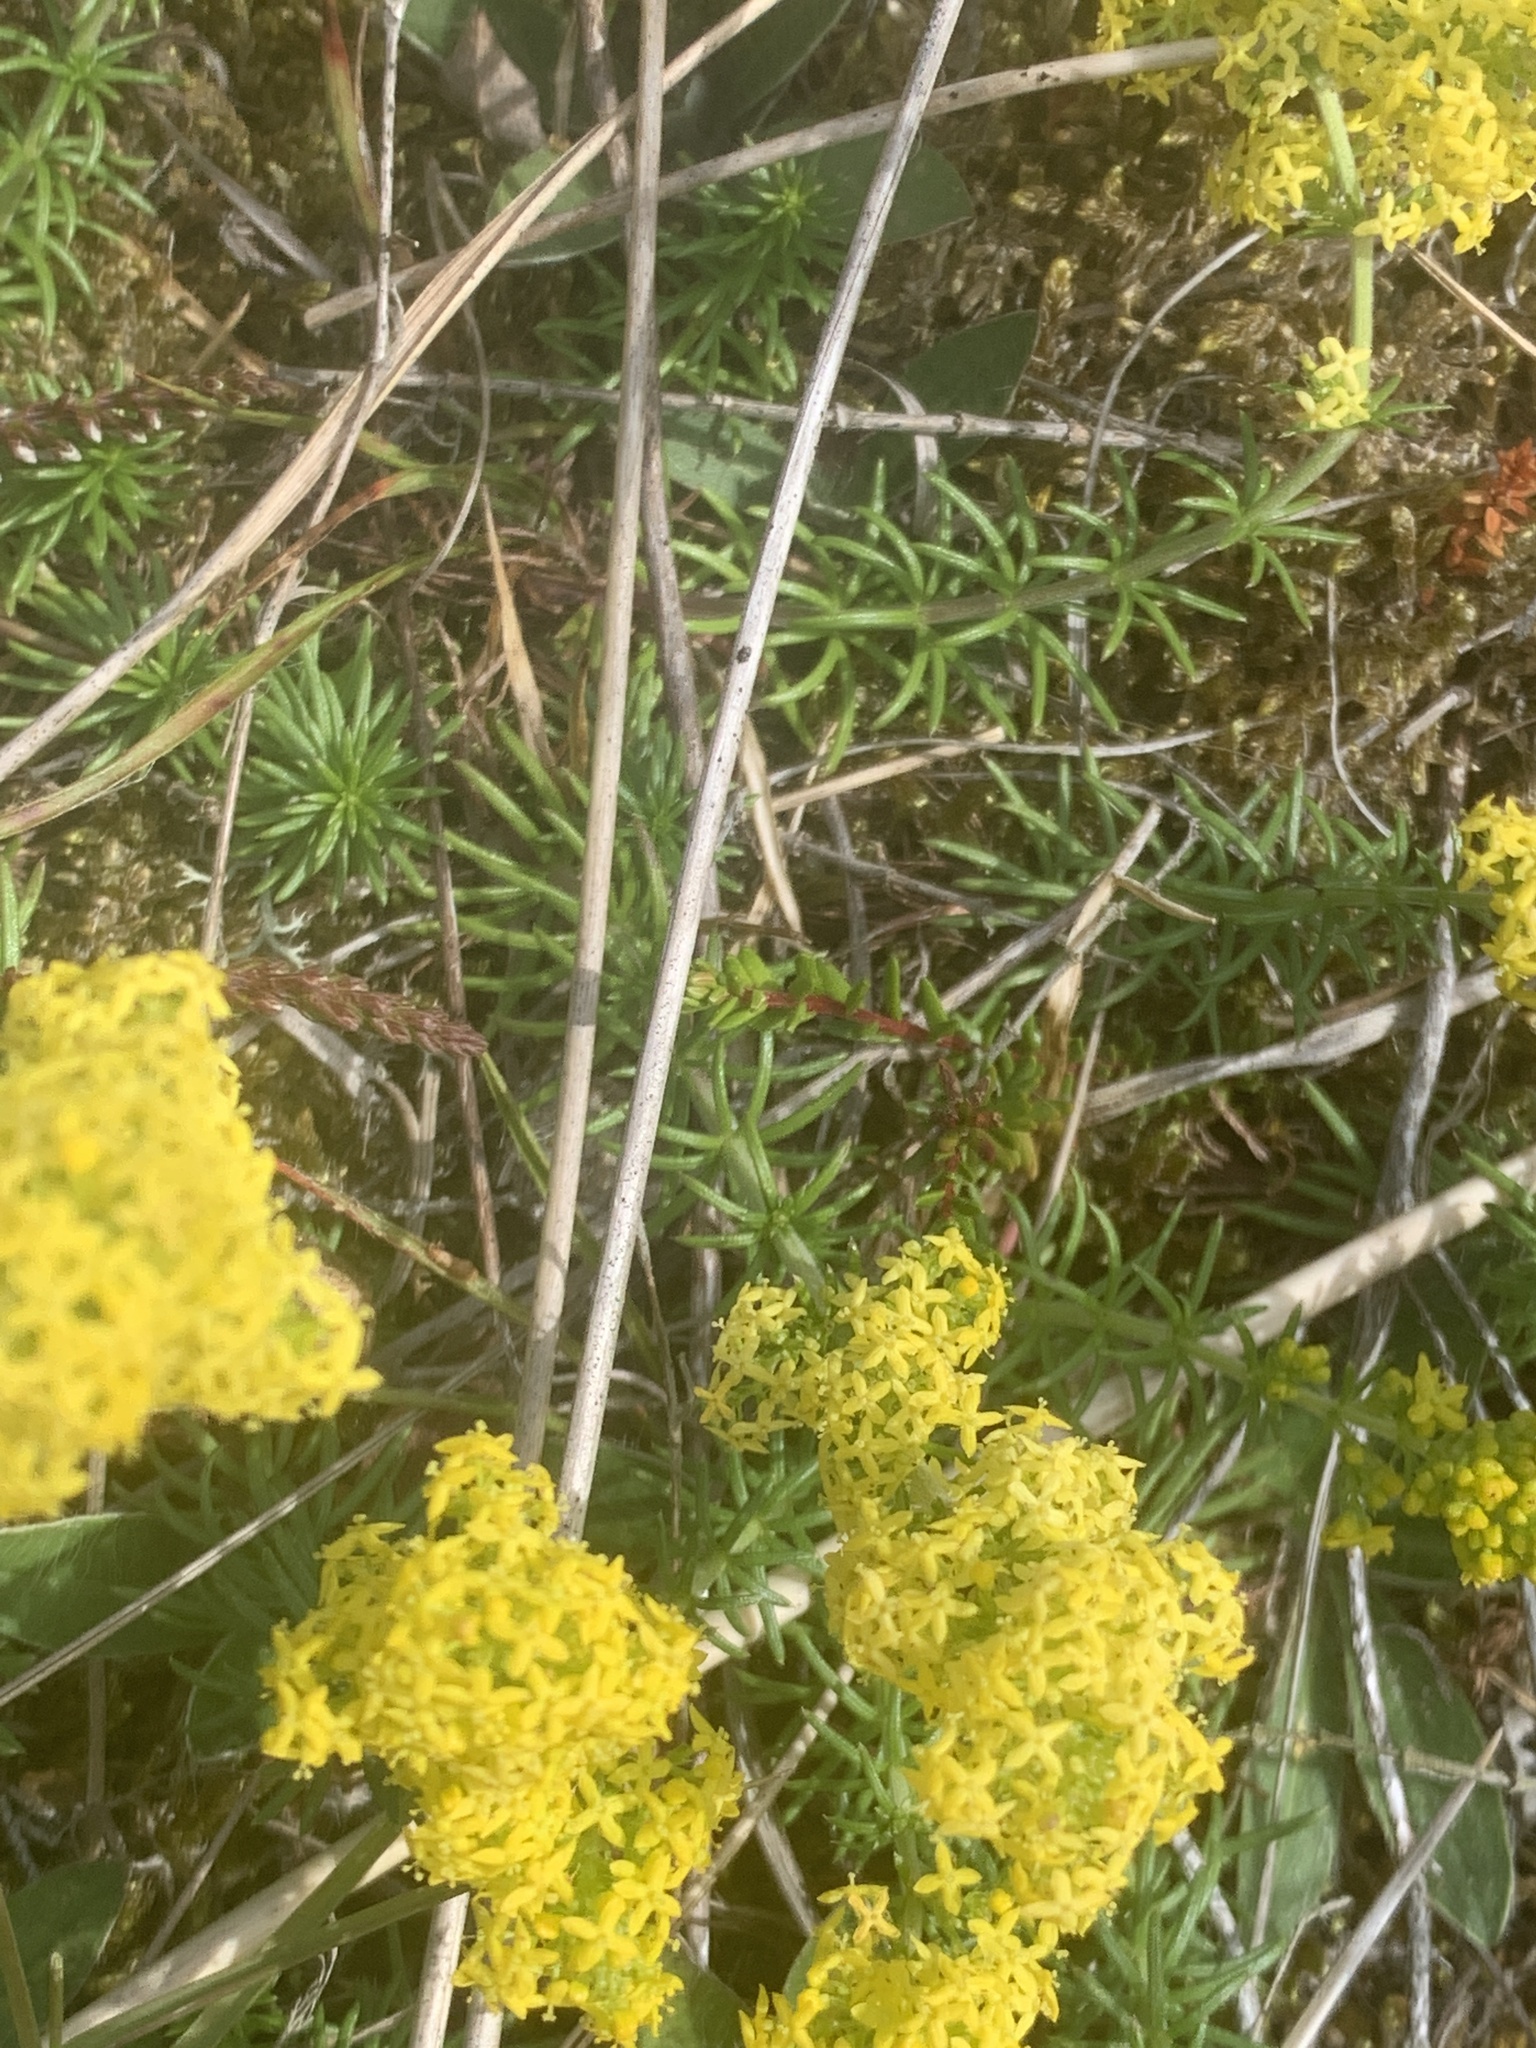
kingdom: Plantae
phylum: Tracheophyta
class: Magnoliopsida
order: Gentianales
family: Rubiaceae
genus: Galium
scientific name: Galium verum
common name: Lady's bedstraw
